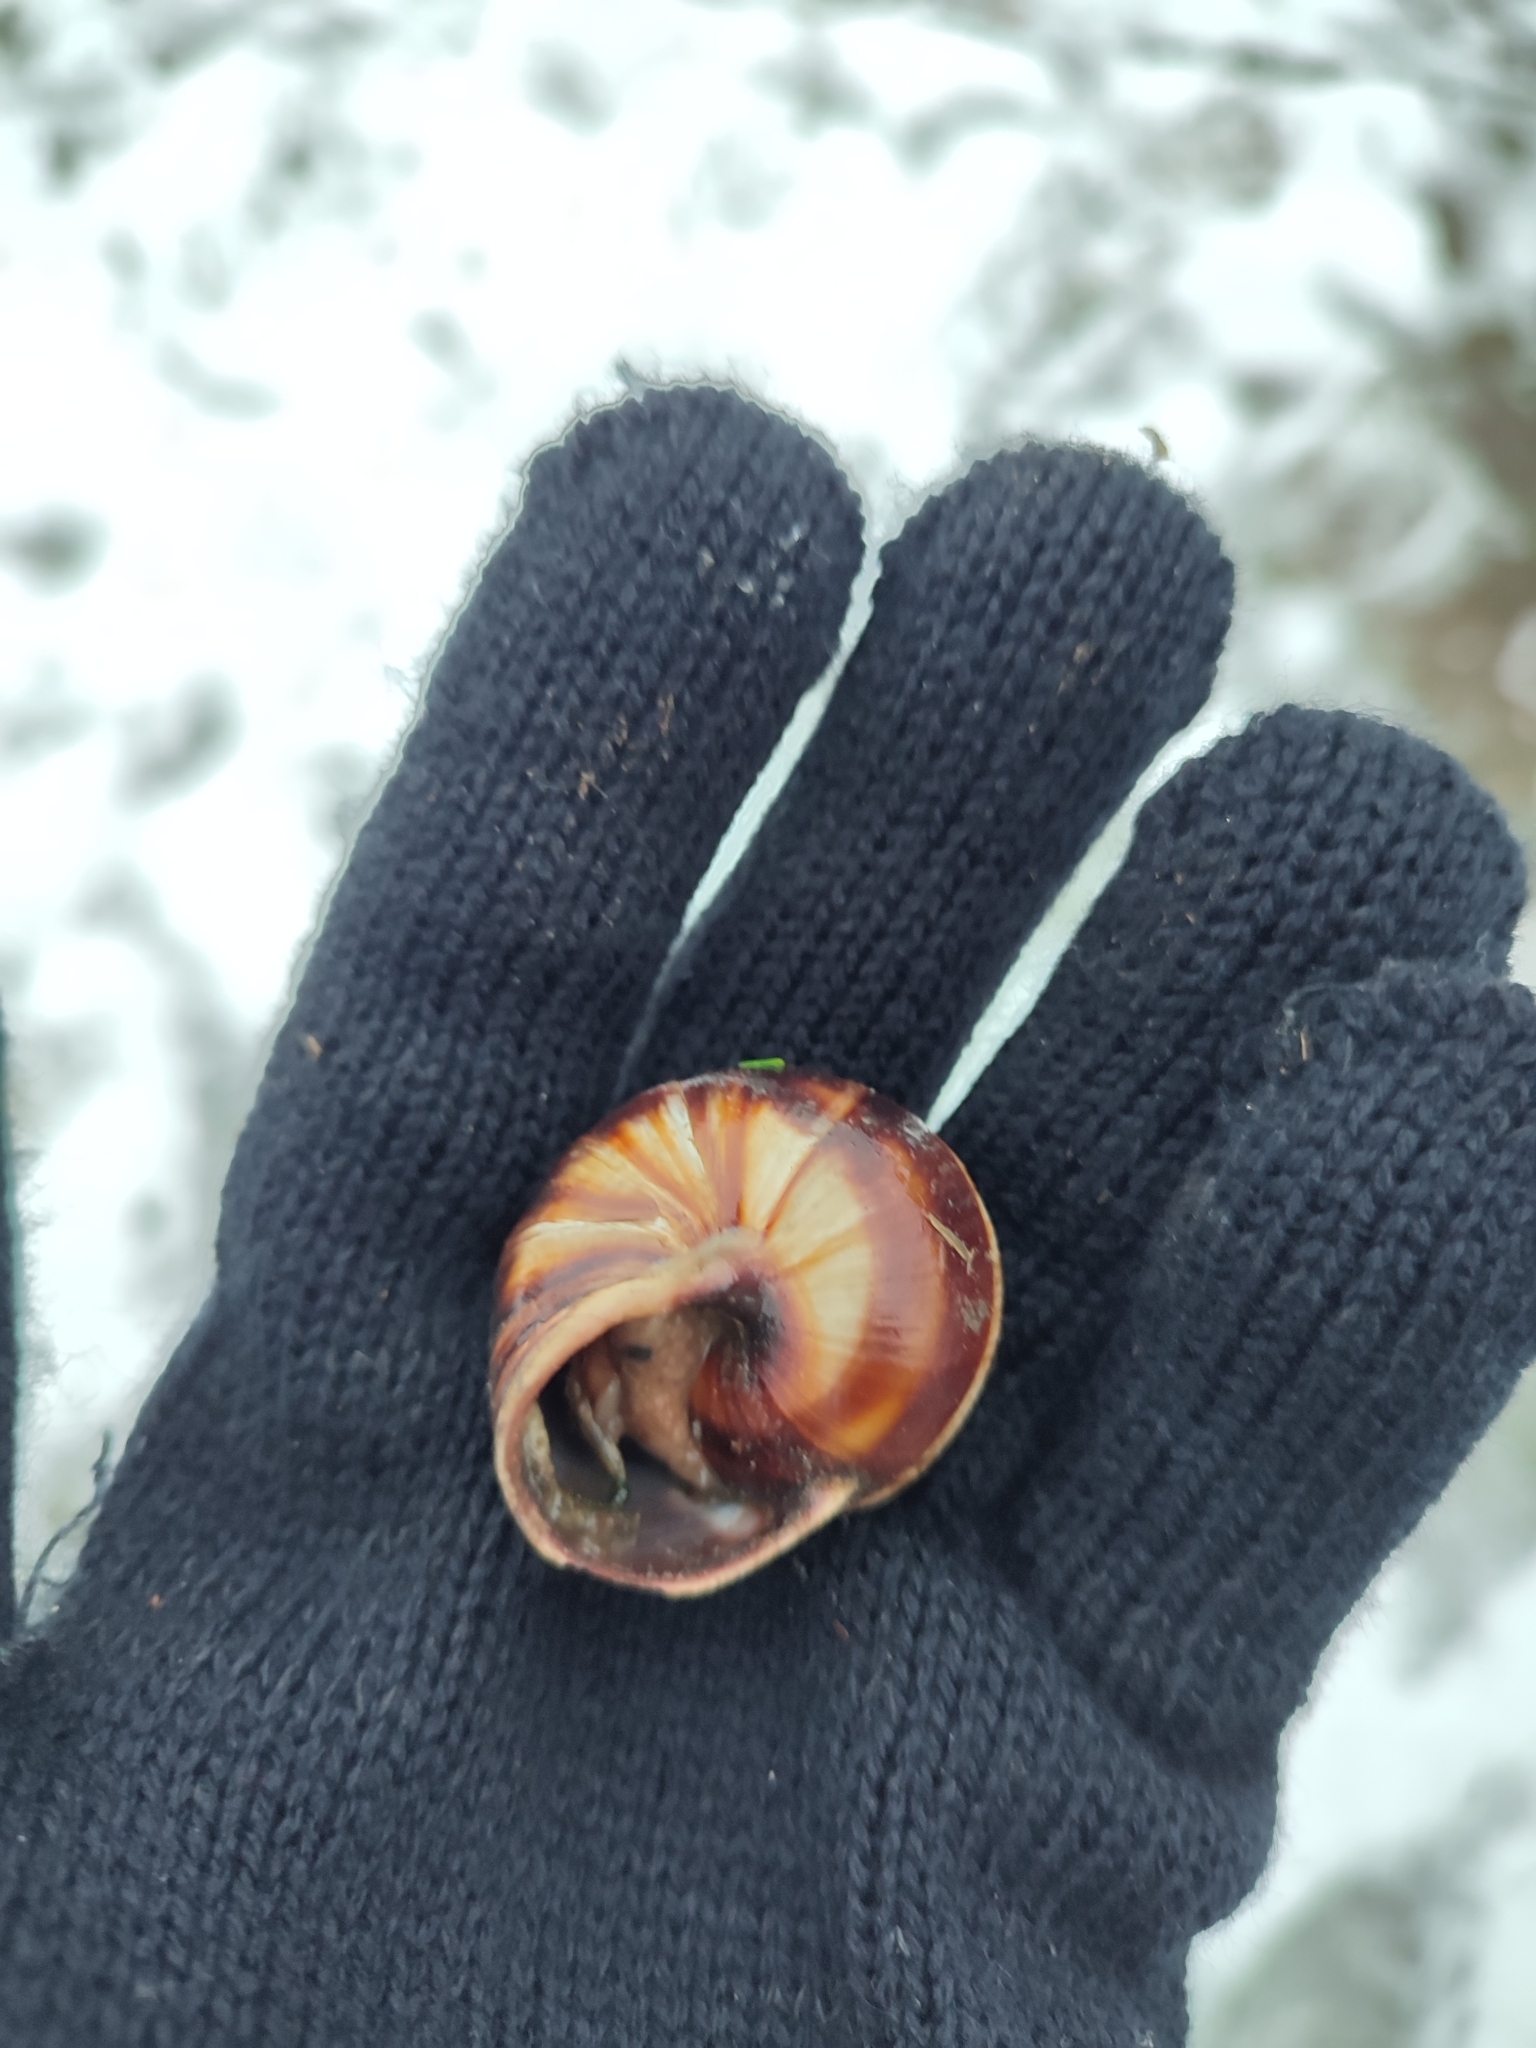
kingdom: Animalia
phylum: Mollusca
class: Gastropoda
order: Stylommatophora
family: Helicidae
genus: Helix
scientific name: Helix lucorum
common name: Turkish snail
